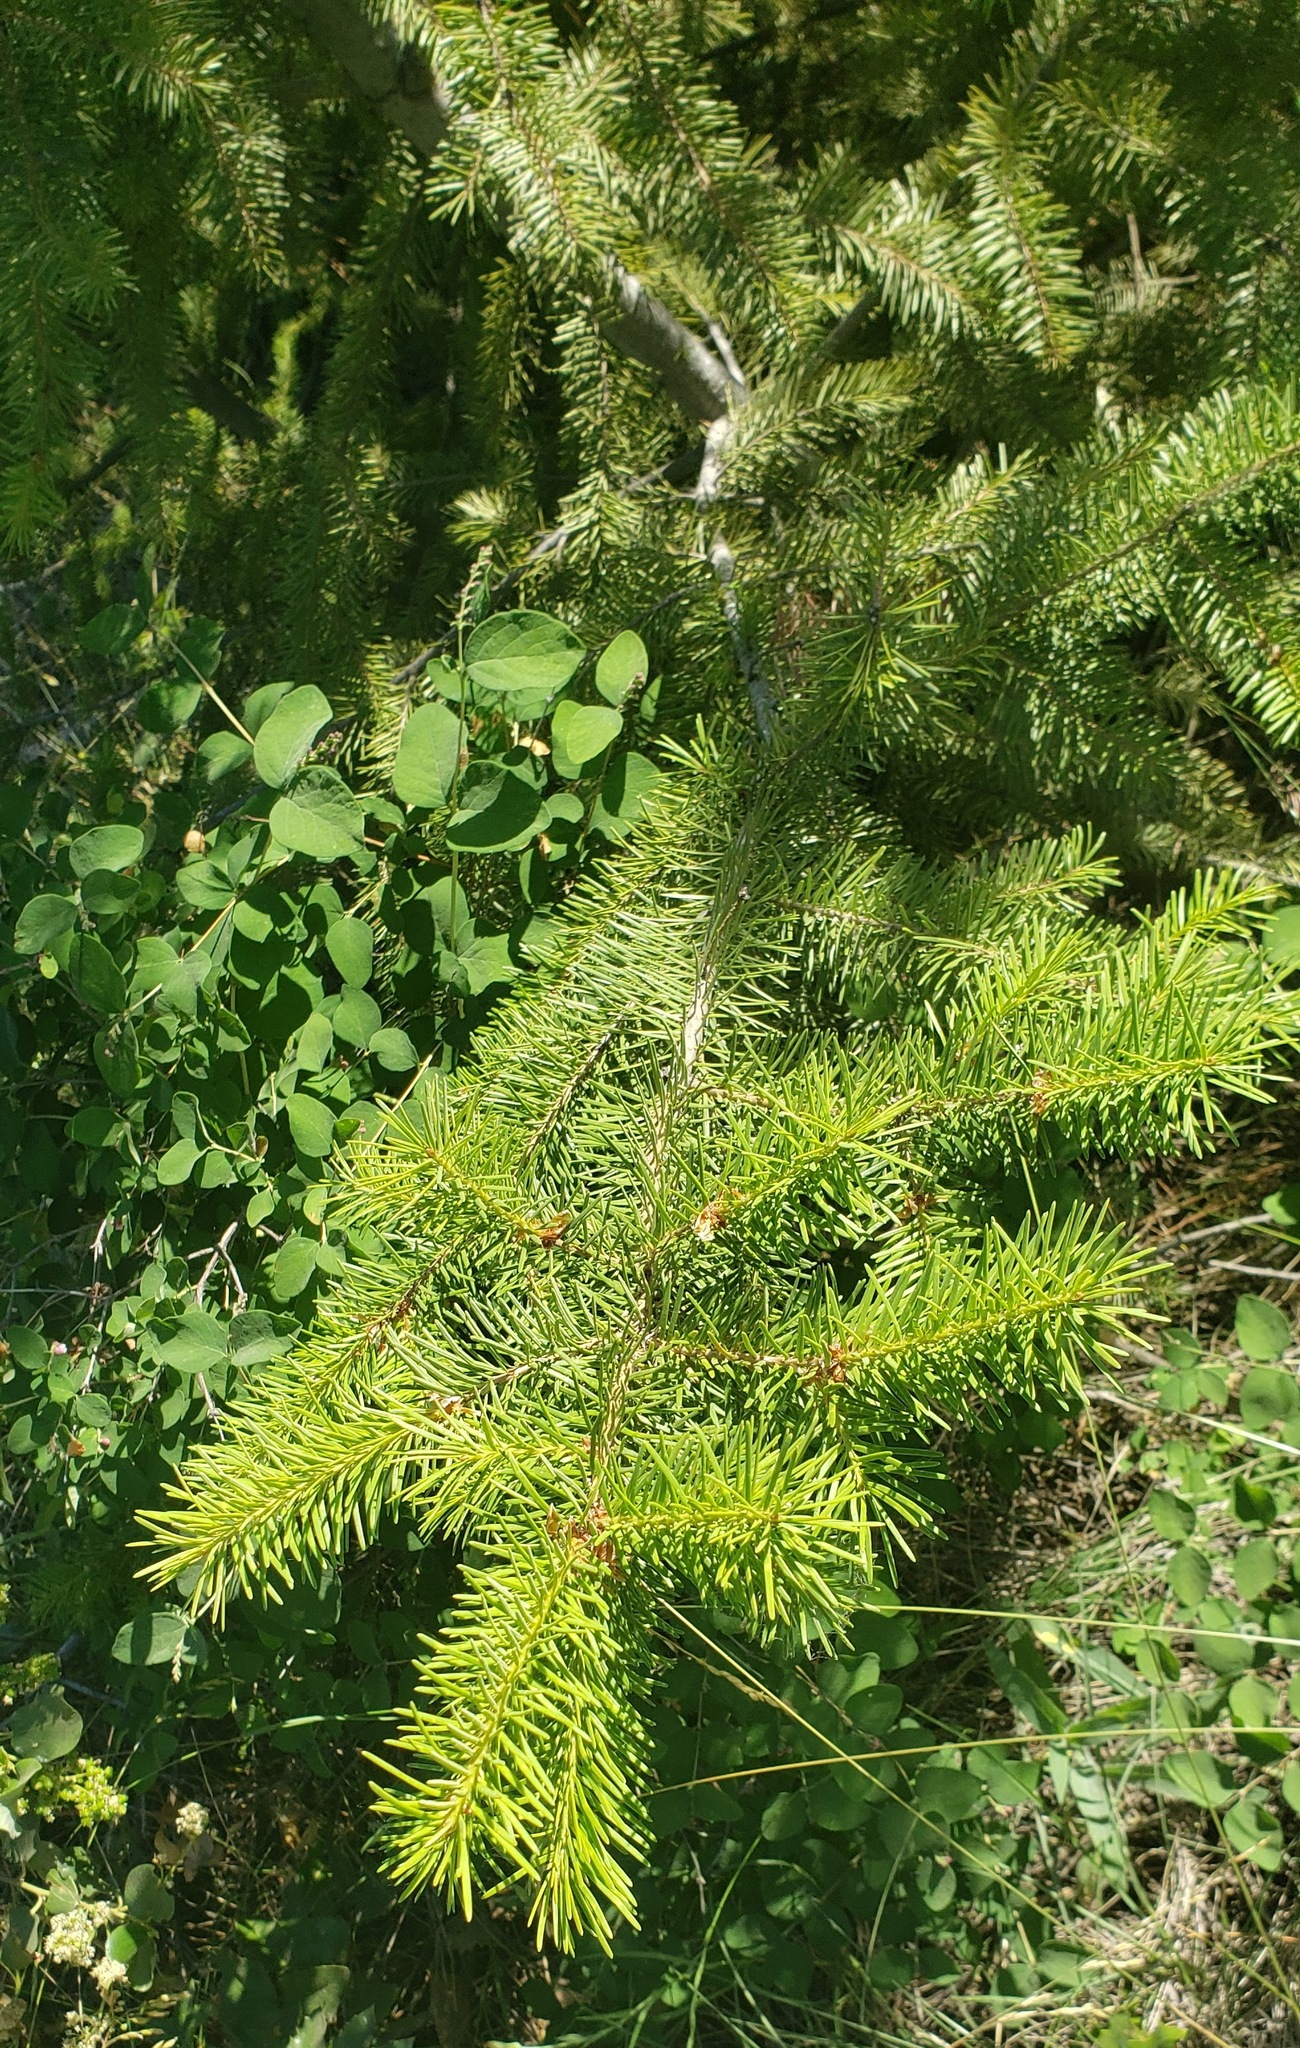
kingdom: Plantae
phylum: Tracheophyta
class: Pinopsida
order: Pinales
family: Pinaceae
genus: Pseudotsuga
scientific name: Pseudotsuga menziesii
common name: Douglas fir
